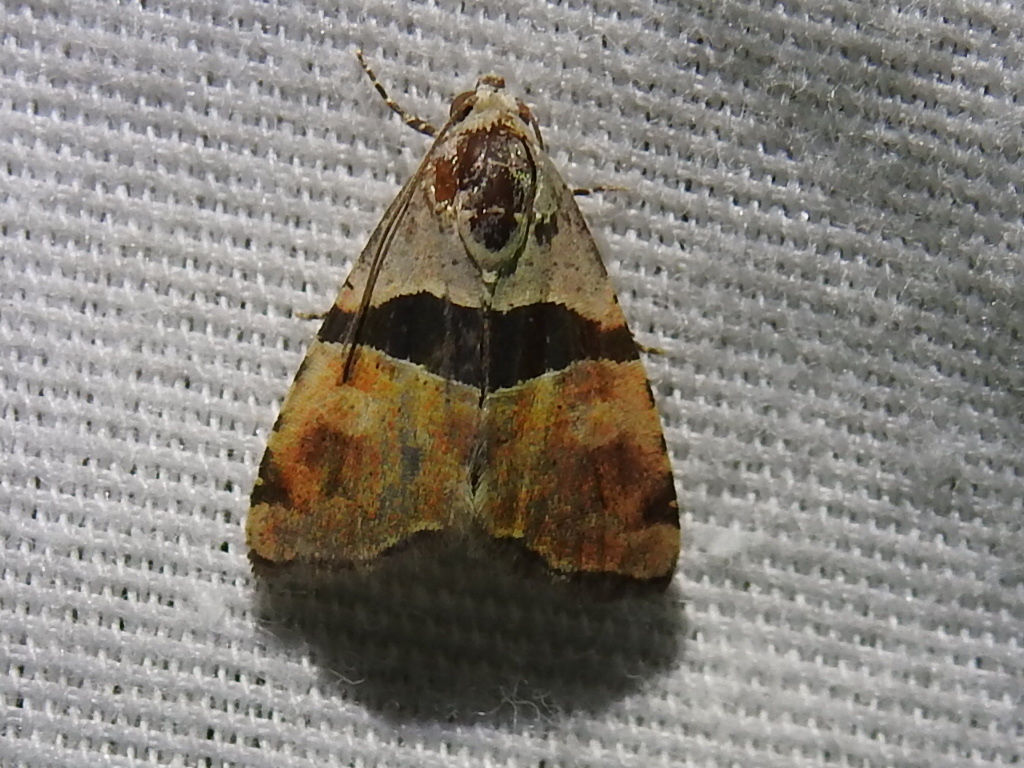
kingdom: Animalia
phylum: Arthropoda
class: Insecta
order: Lepidoptera
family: Noctuidae
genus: Cobubatha
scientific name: Cobubatha lixiva
